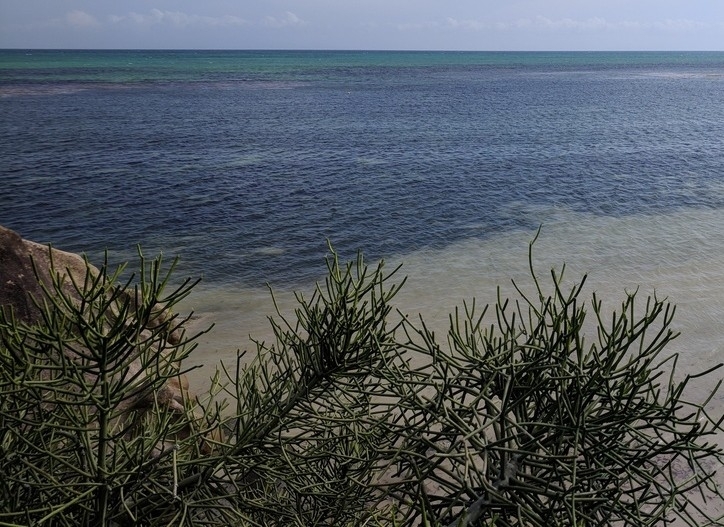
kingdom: Plantae
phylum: Tracheophyta
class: Magnoliopsida
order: Malpighiales
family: Euphorbiaceae
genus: Euphorbia
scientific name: Euphorbia tirucalli
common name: Indiantree spurge
